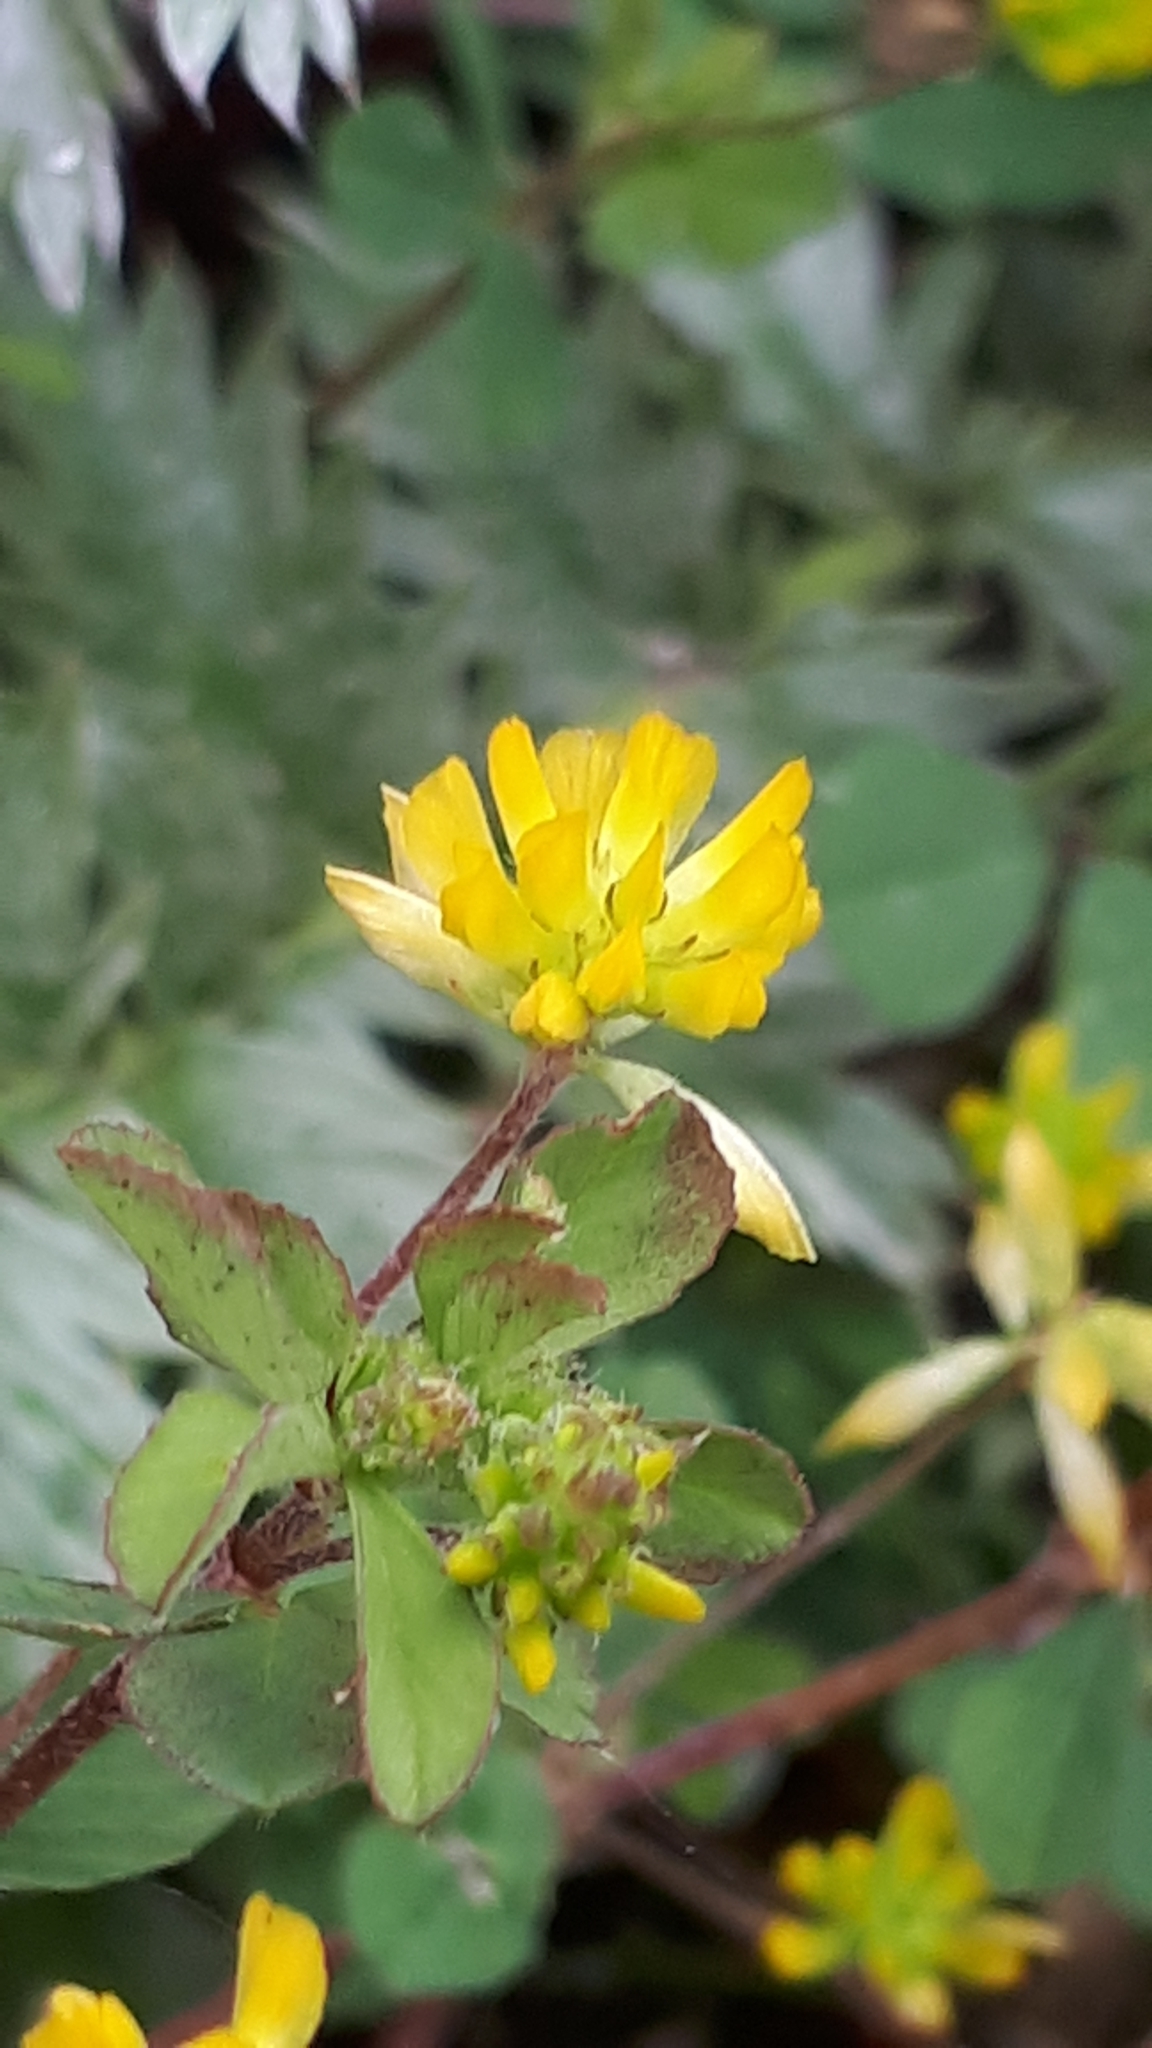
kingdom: Plantae
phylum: Tracheophyta
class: Magnoliopsida
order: Fabales
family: Fabaceae
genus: Trifolium
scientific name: Trifolium dubium
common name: Suckling clover
